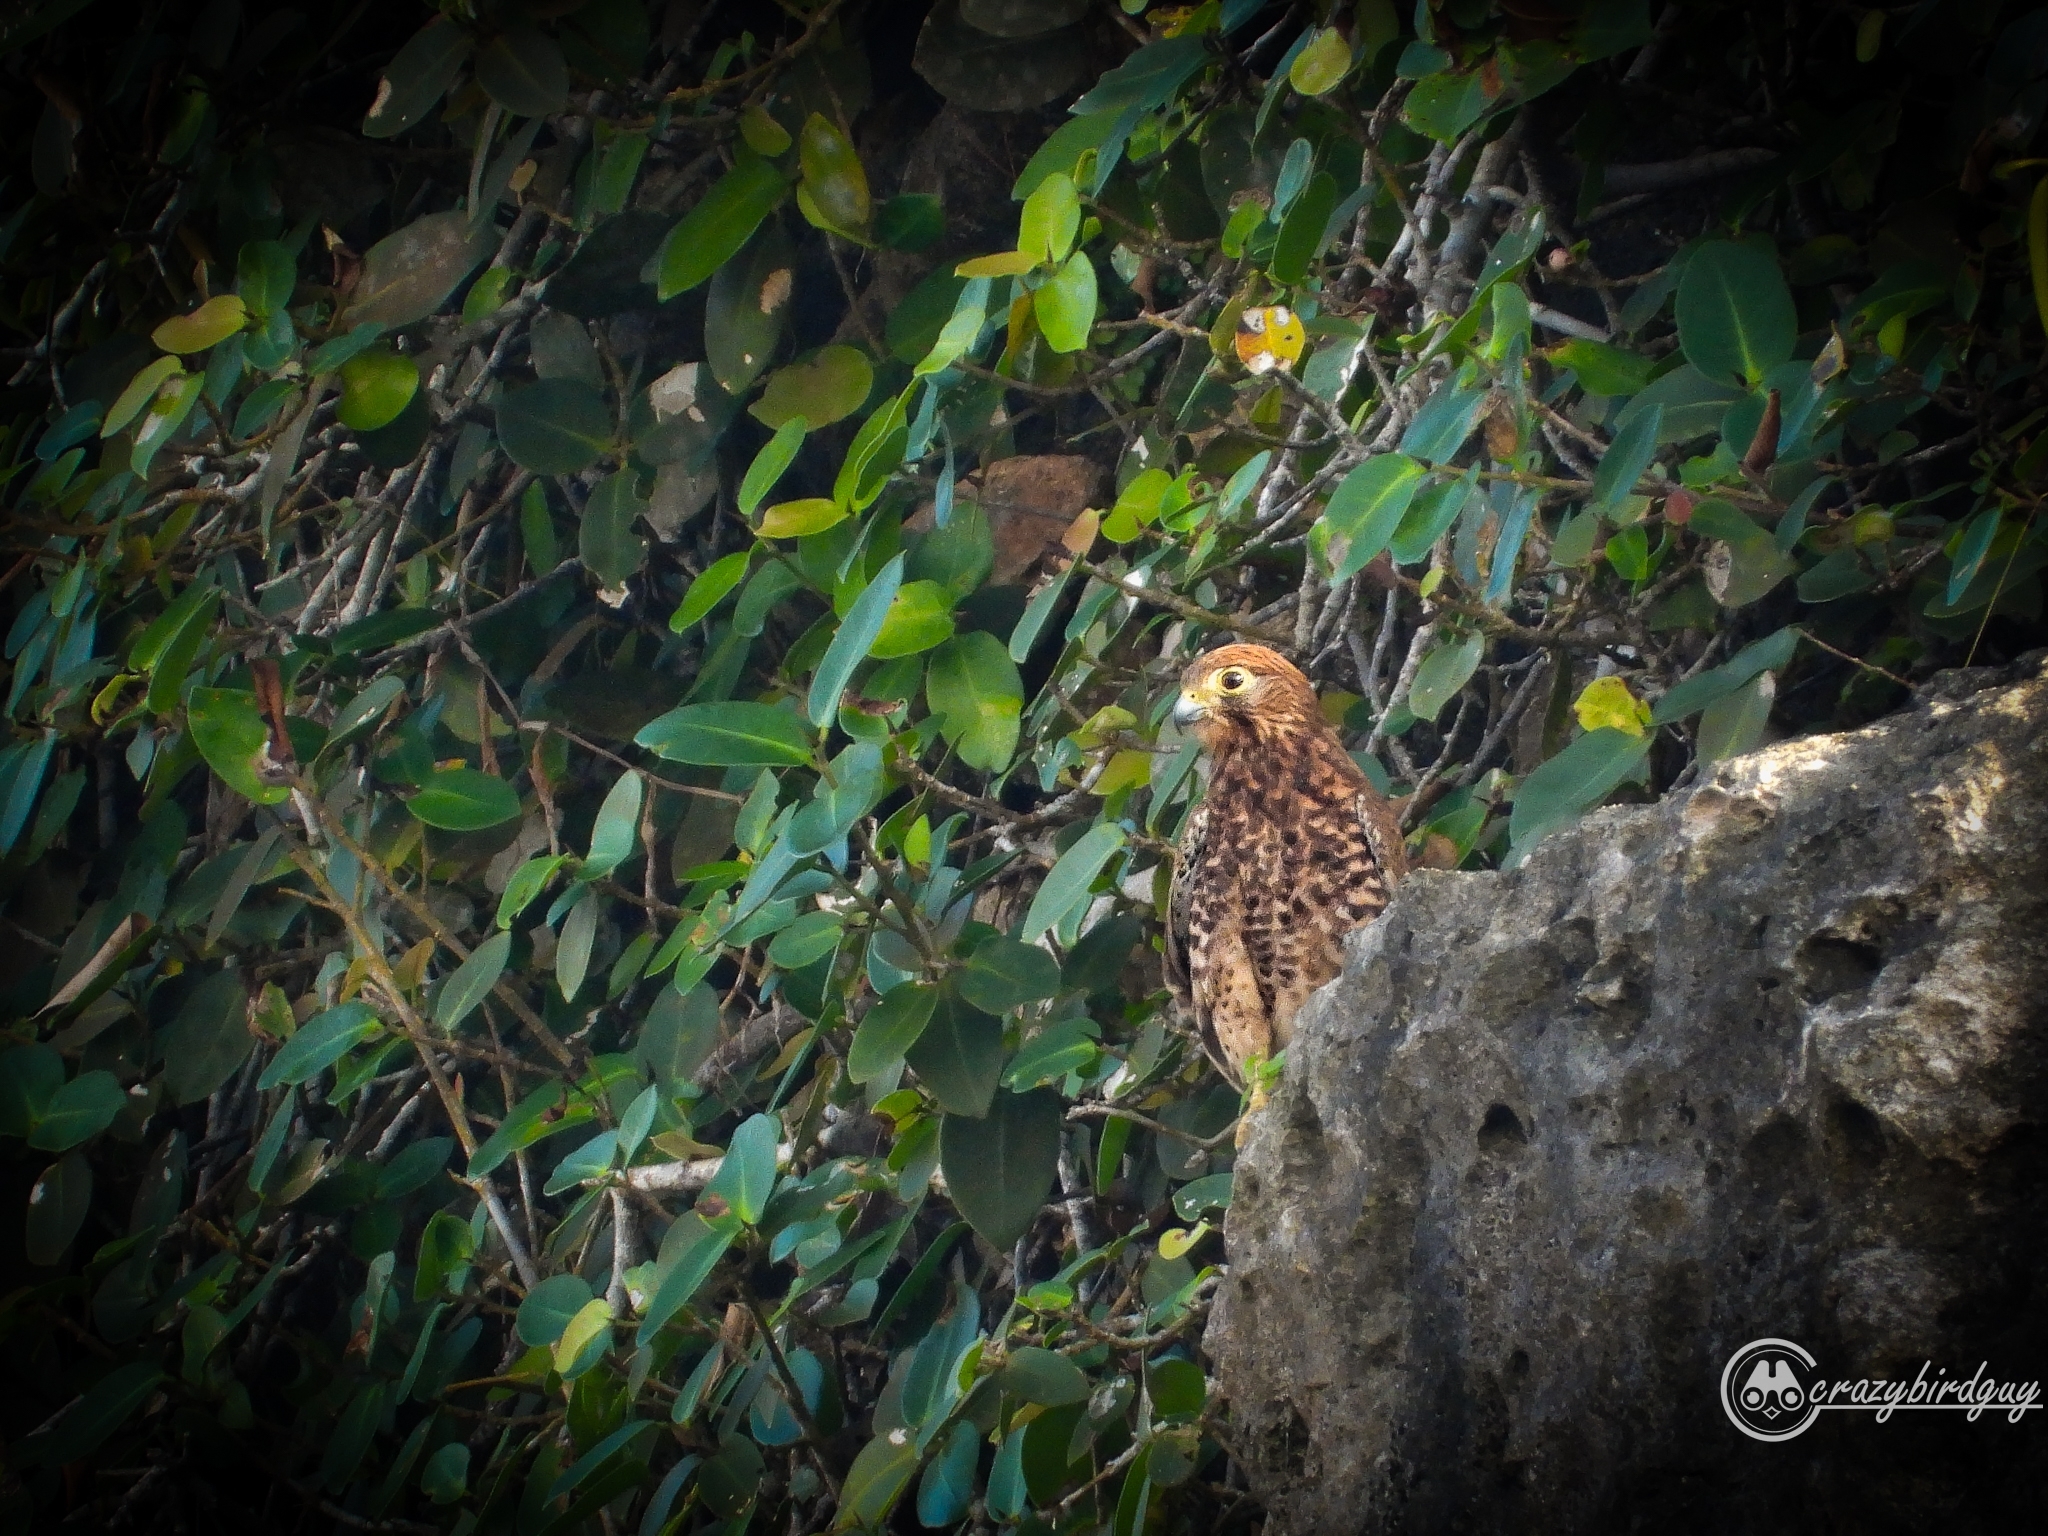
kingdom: Animalia
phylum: Chordata
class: Aves
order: Falconiformes
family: Falconidae
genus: Falco
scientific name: Falco moluccensis
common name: Spotted kestrel
